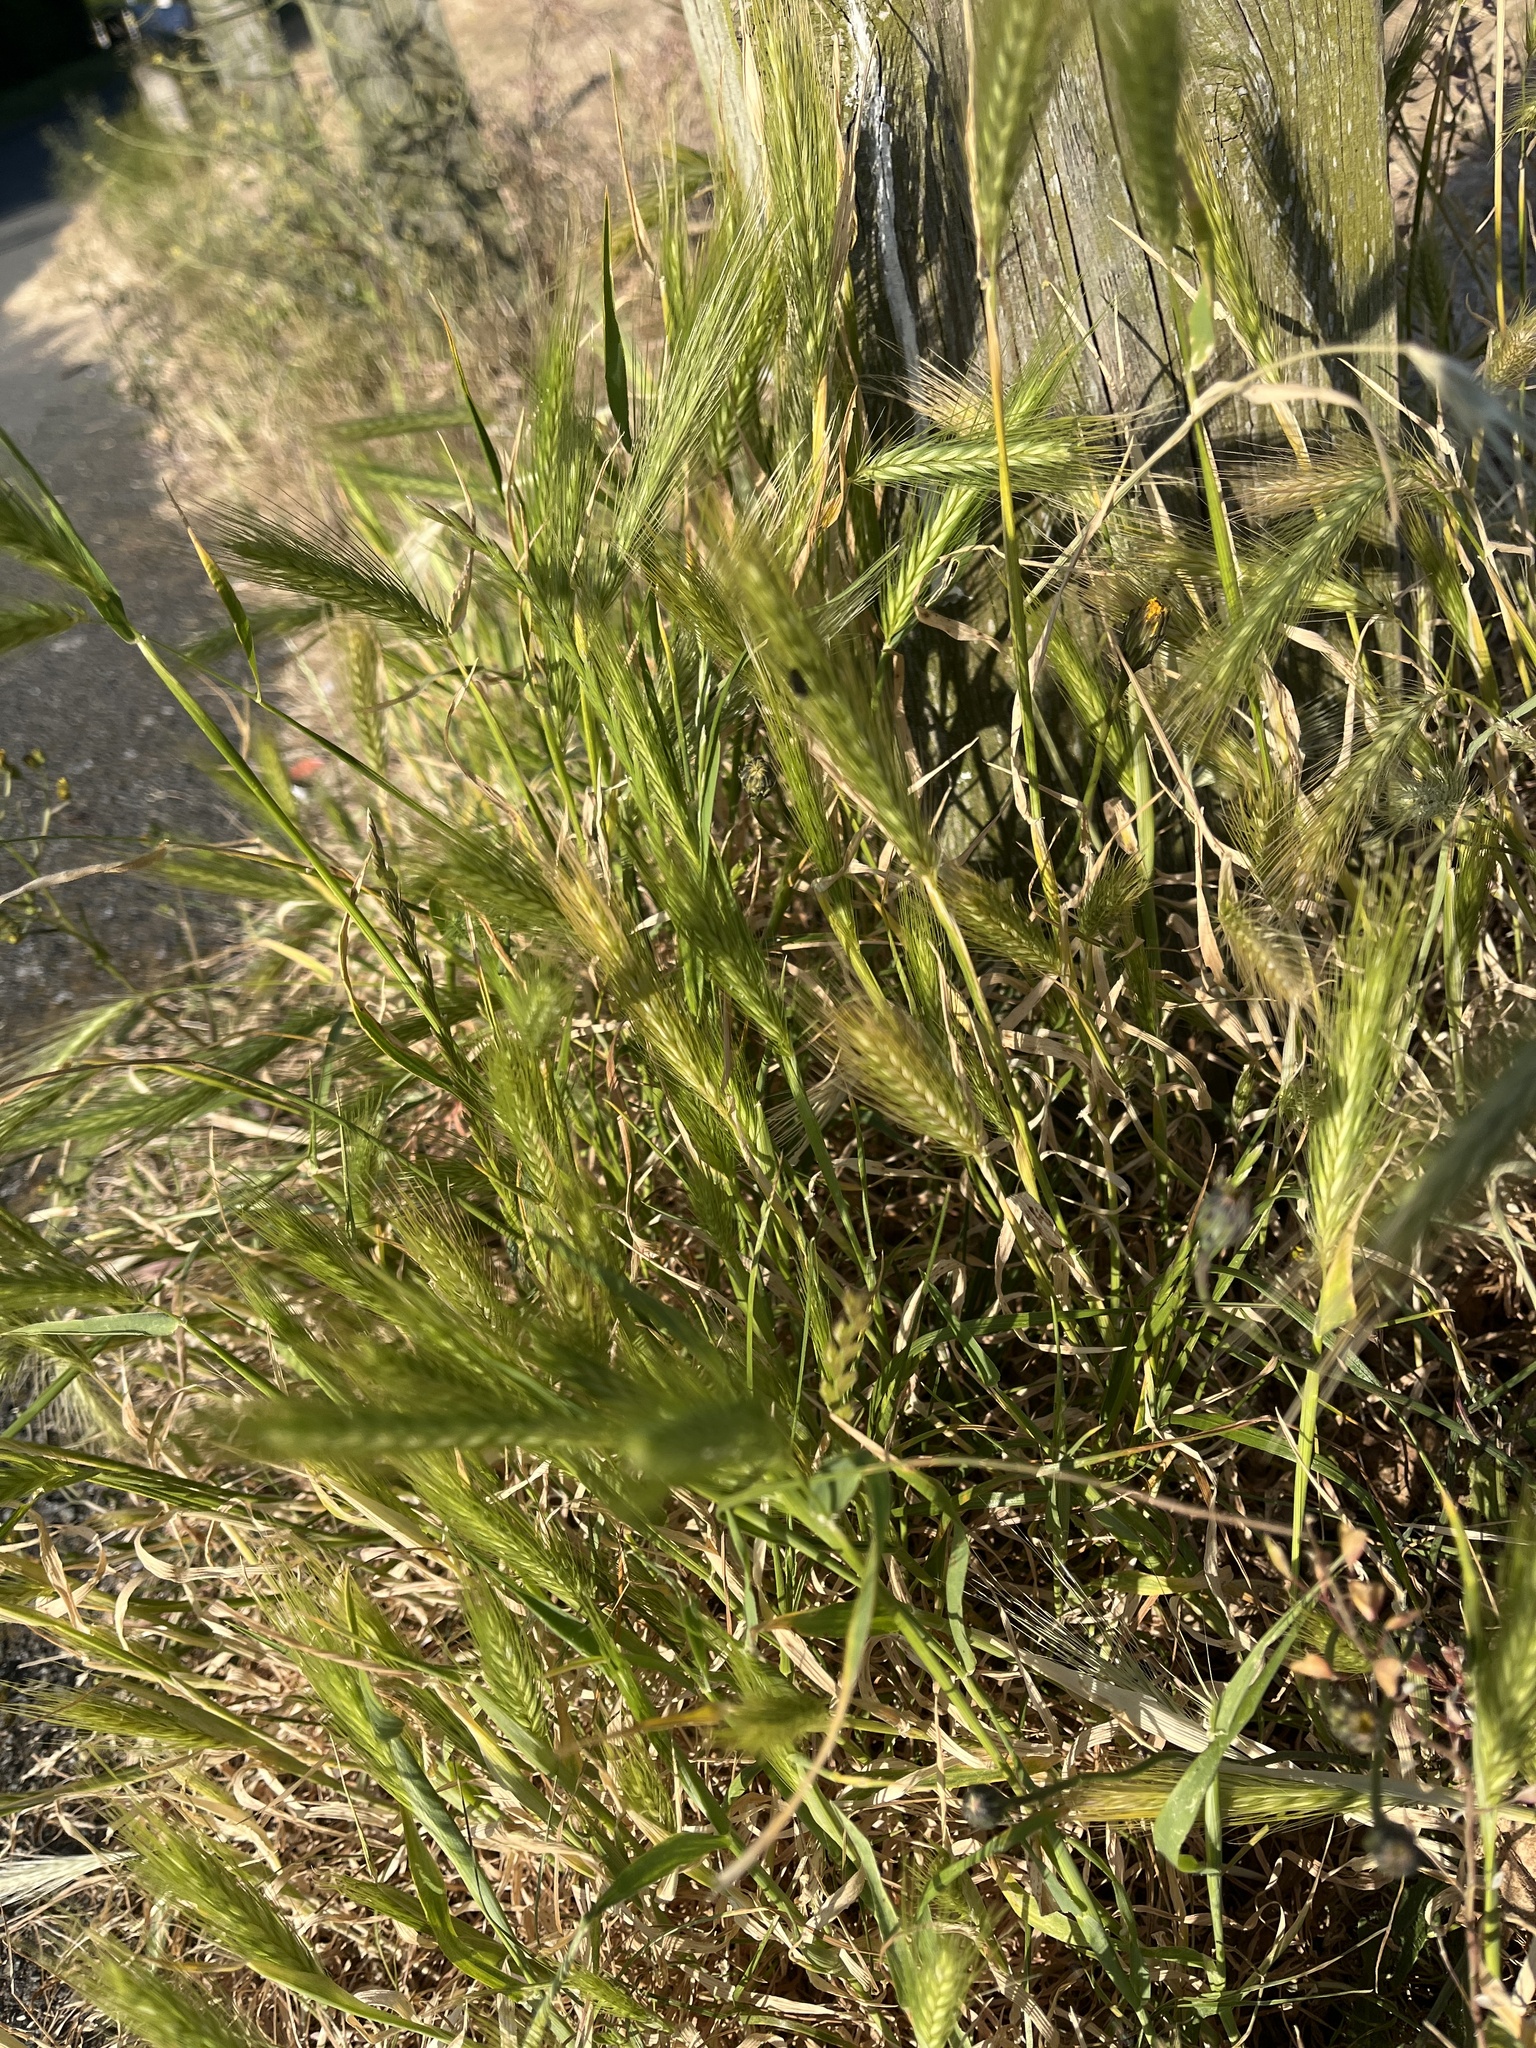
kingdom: Plantae
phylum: Tracheophyta
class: Liliopsida
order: Poales
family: Poaceae
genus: Hordeum
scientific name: Hordeum murinum
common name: Wall barley
